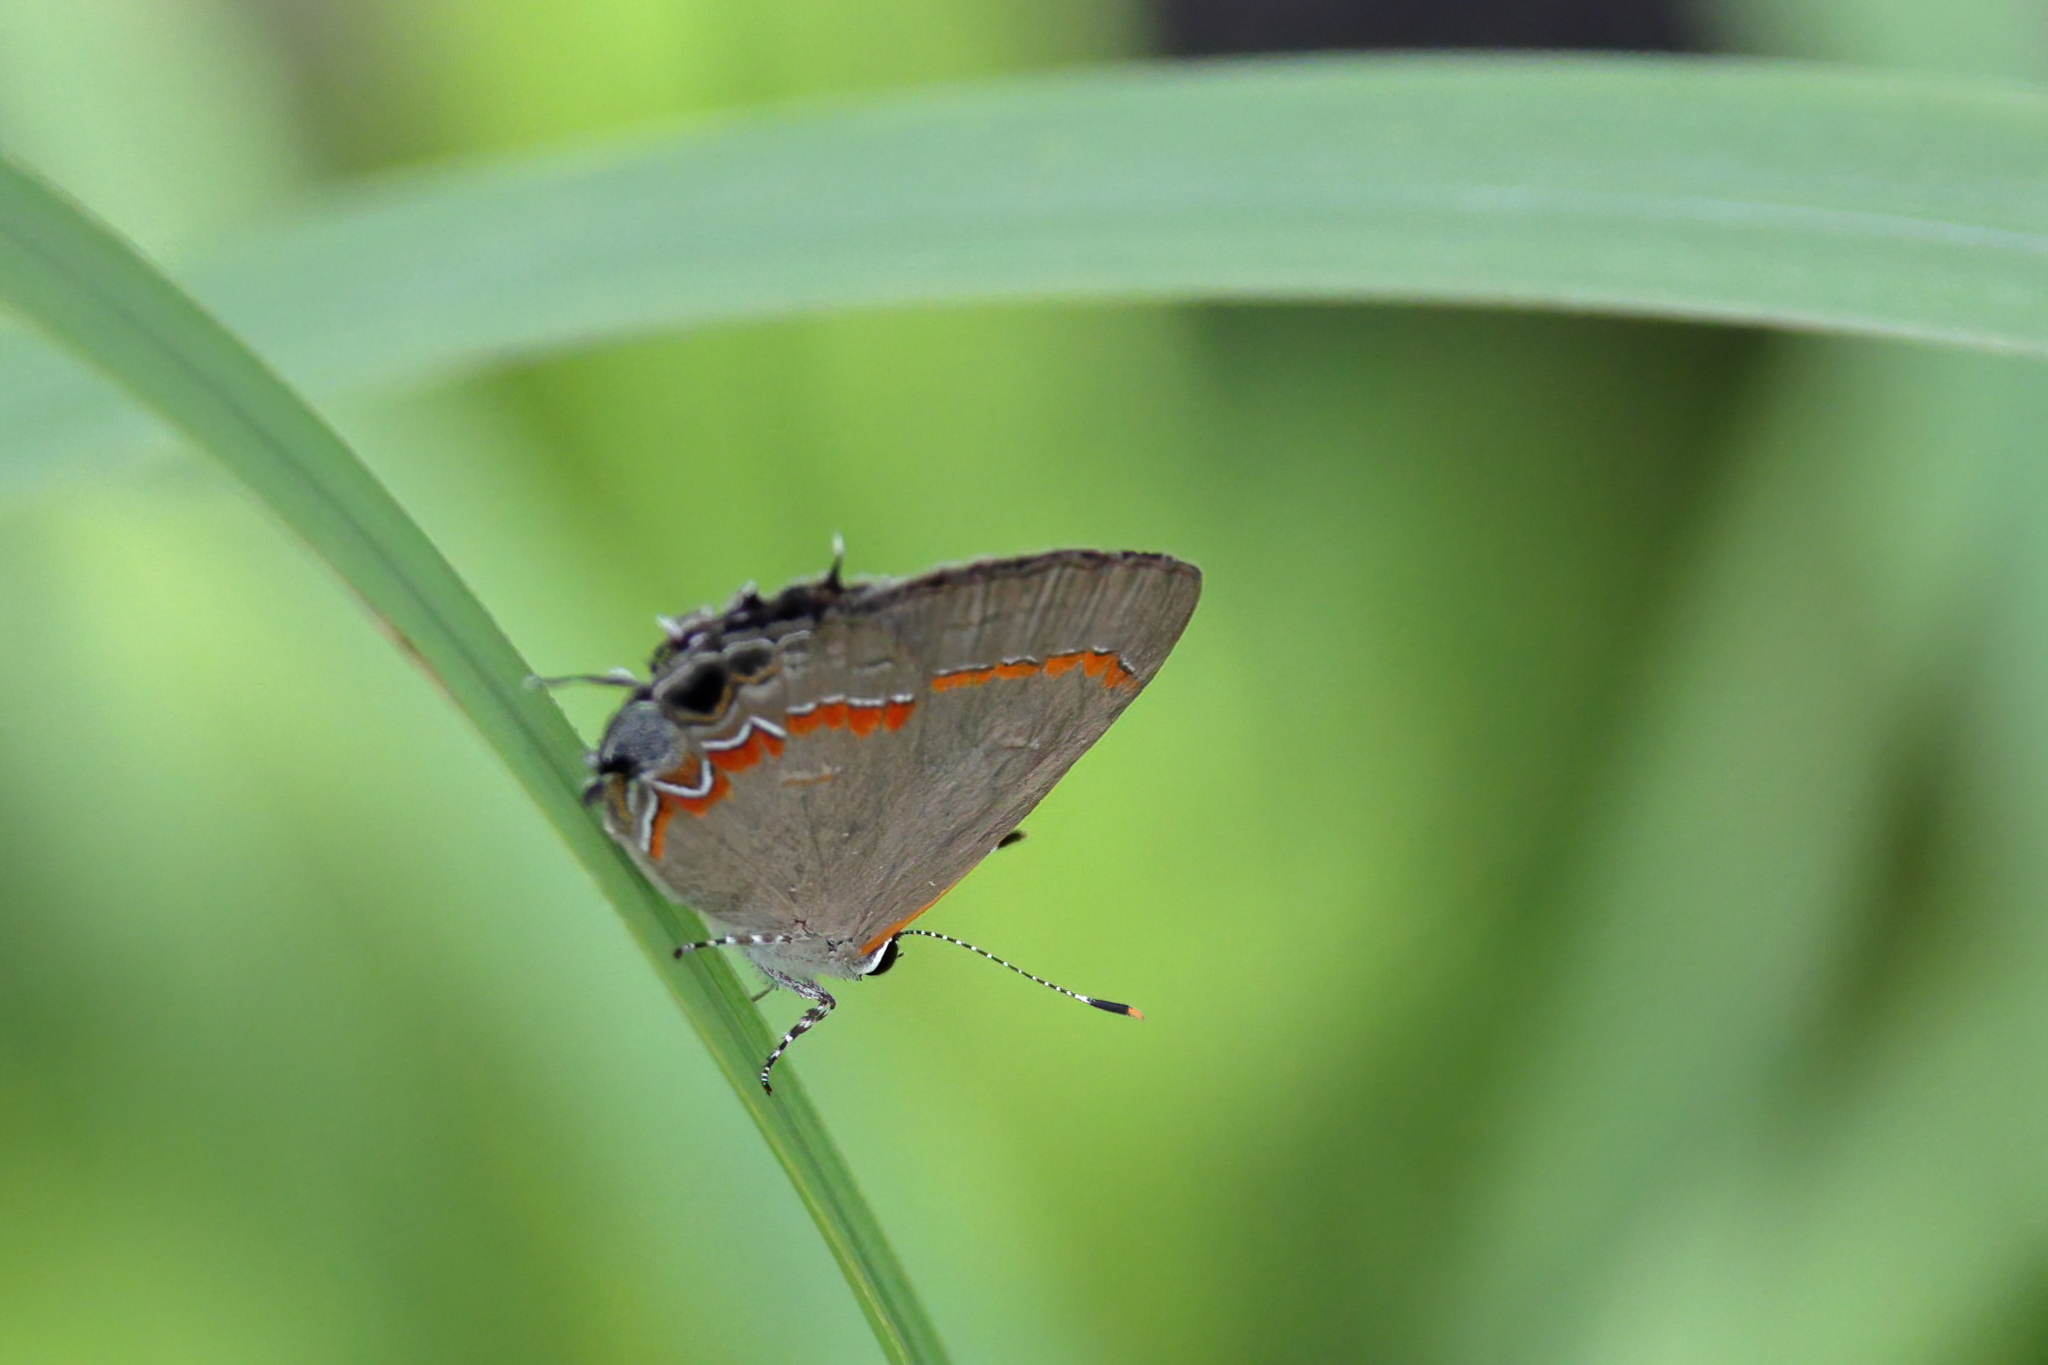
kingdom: Animalia
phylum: Arthropoda
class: Insecta
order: Lepidoptera
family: Lycaenidae
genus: Calycopis
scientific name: Calycopis cecrops
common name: Red-banded hairstreak
